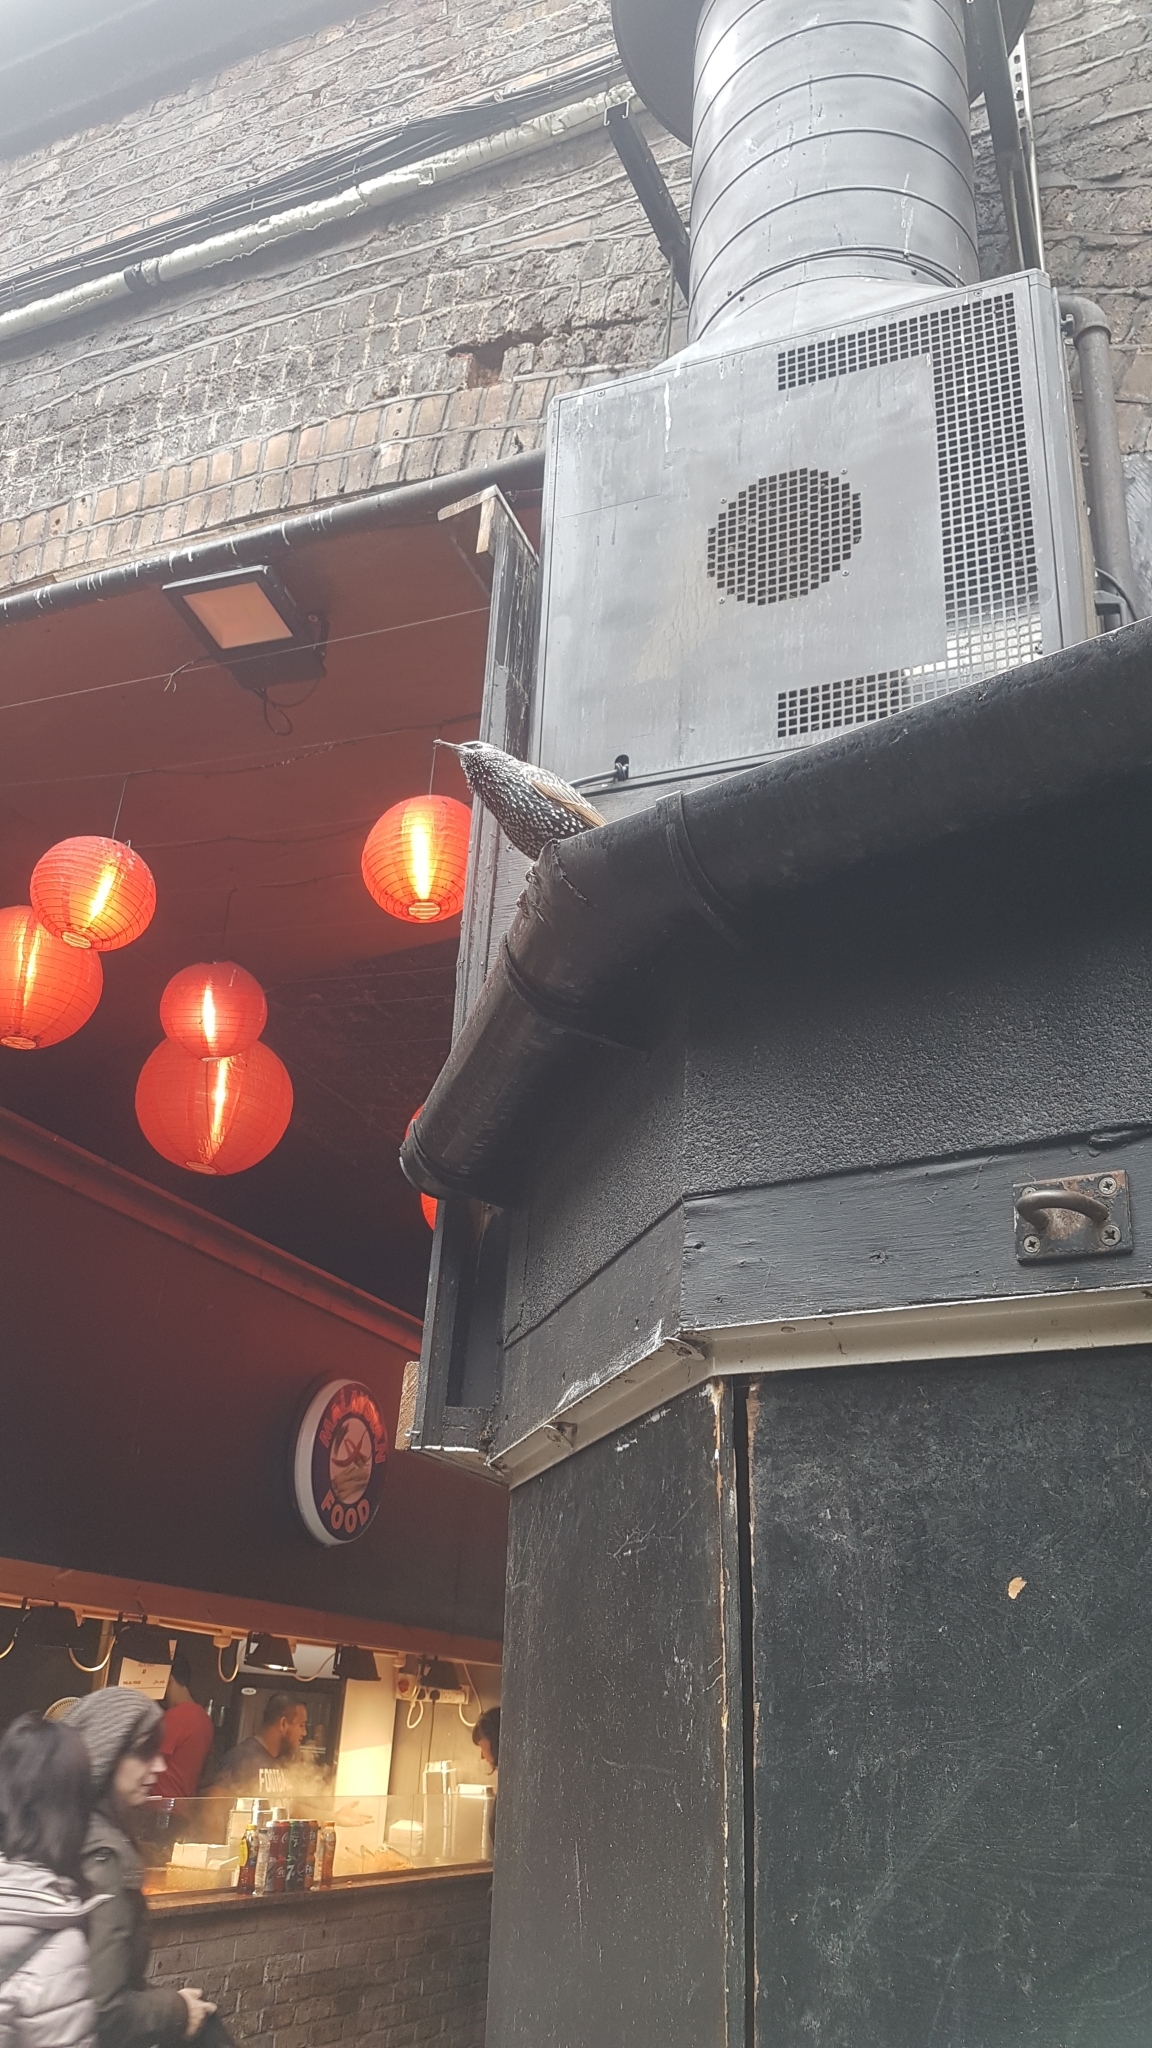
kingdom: Animalia
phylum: Chordata
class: Aves
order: Passeriformes
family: Sturnidae
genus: Sturnus
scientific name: Sturnus vulgaris
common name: Common starling
